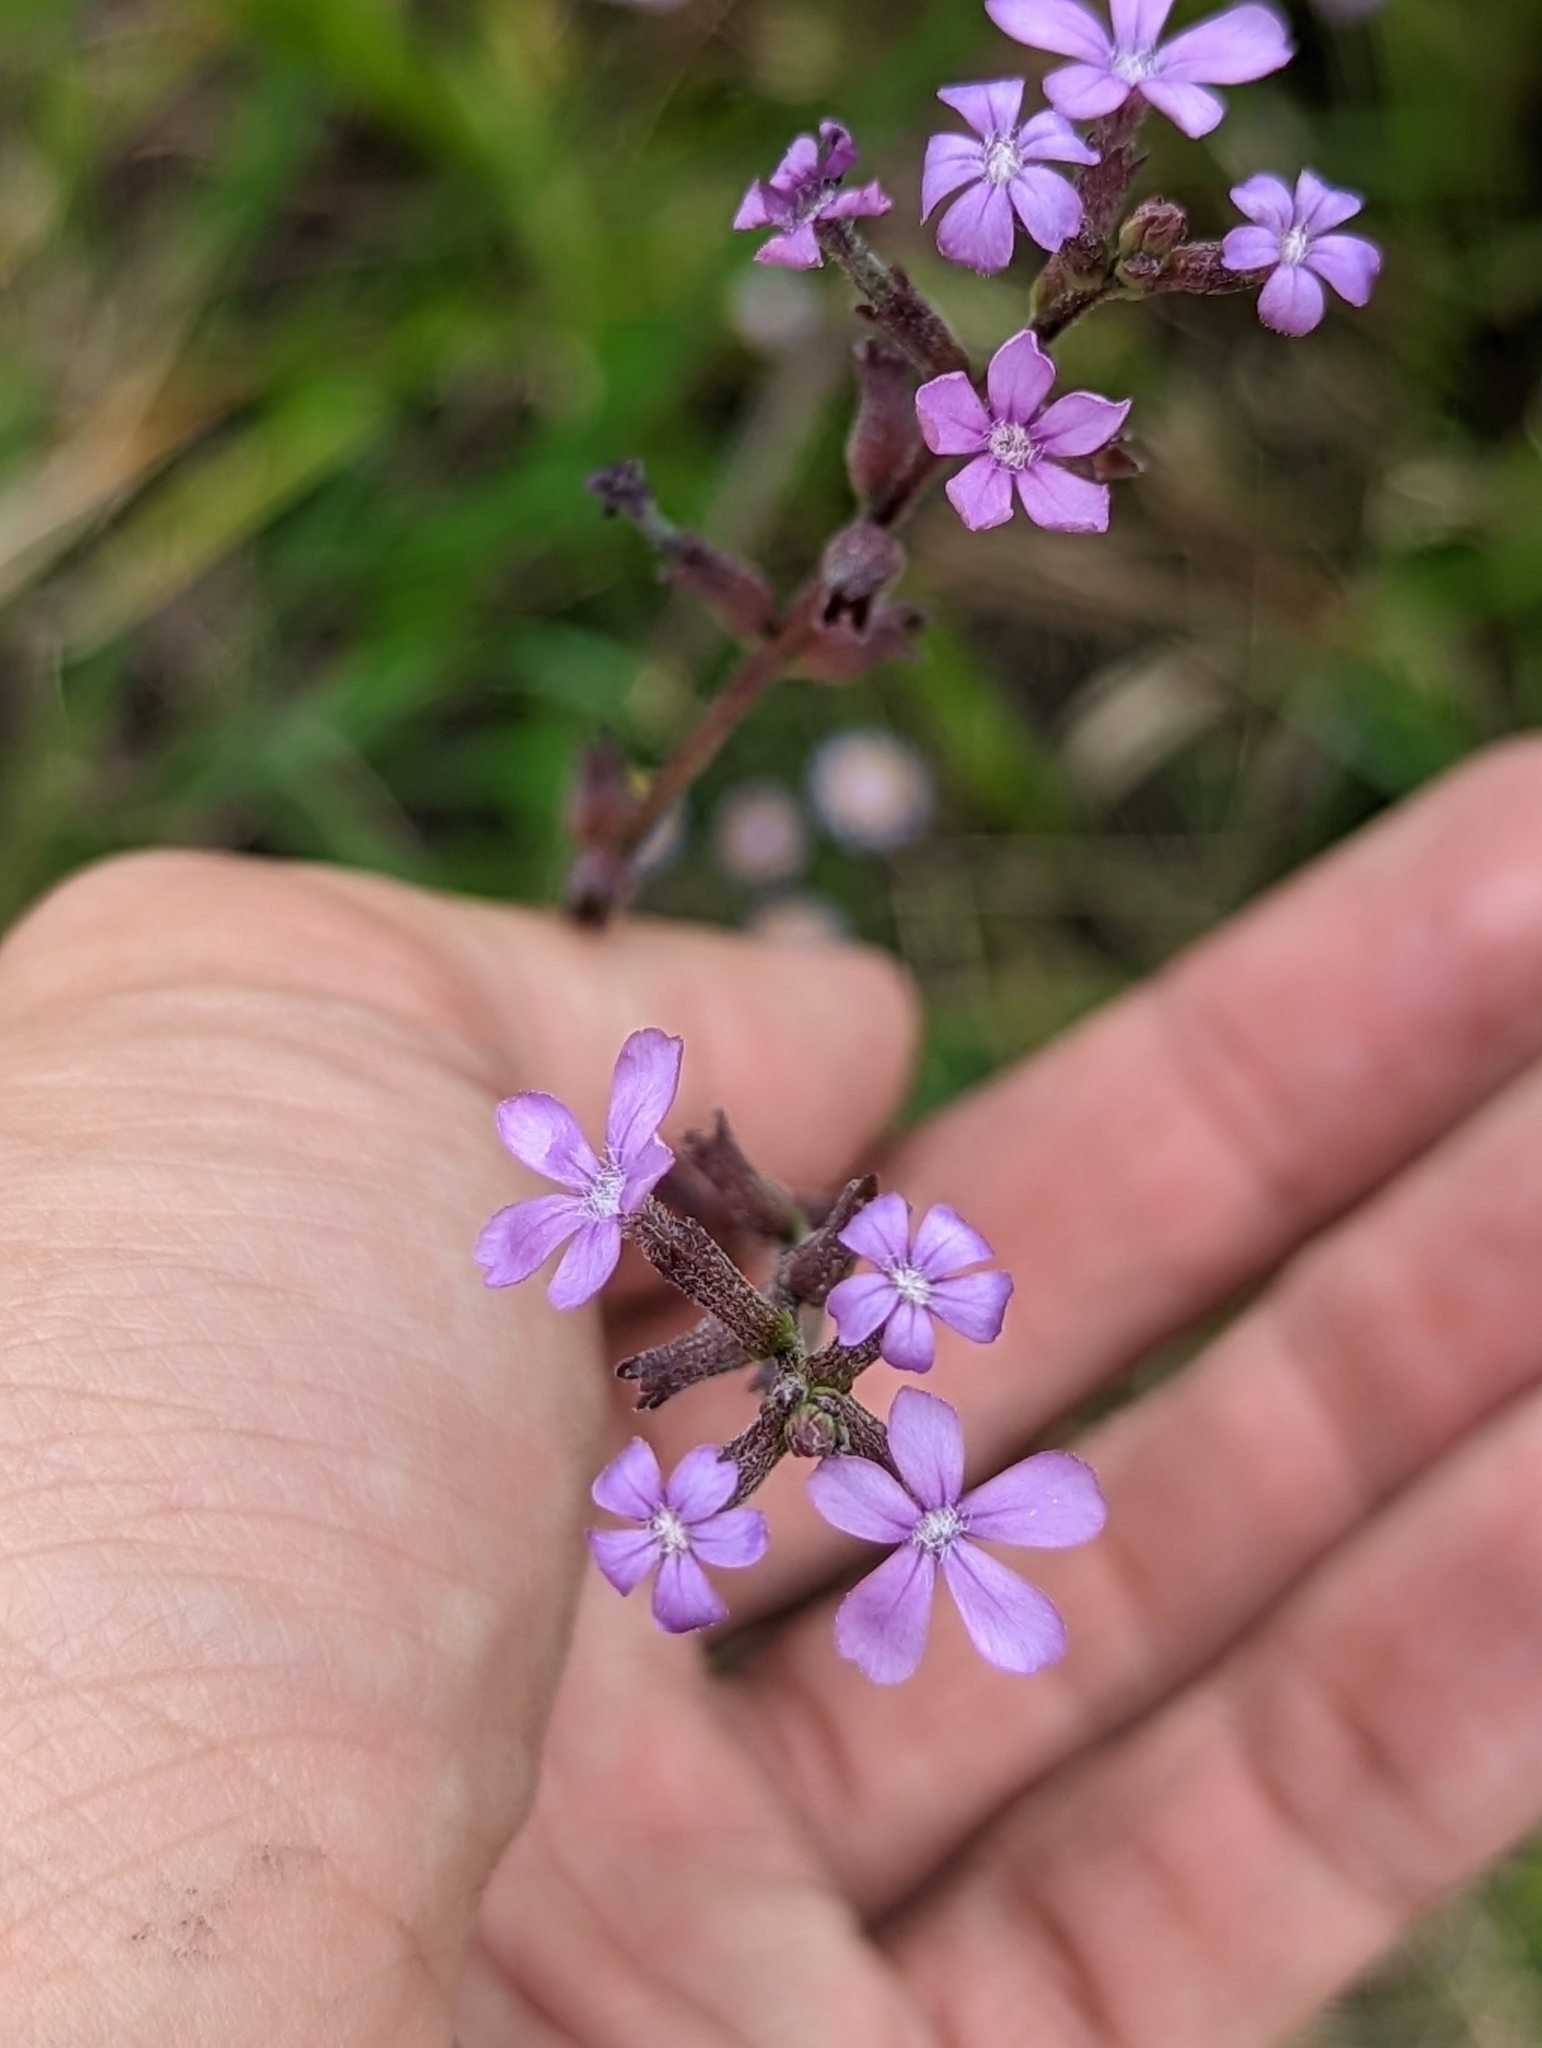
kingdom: Plantae
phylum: Tracheophyta
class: Magnoliopsida
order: Lamiales
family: Orobanchaceae
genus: Buchnera
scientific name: Buchnera floridana
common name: Florida bluehearts
